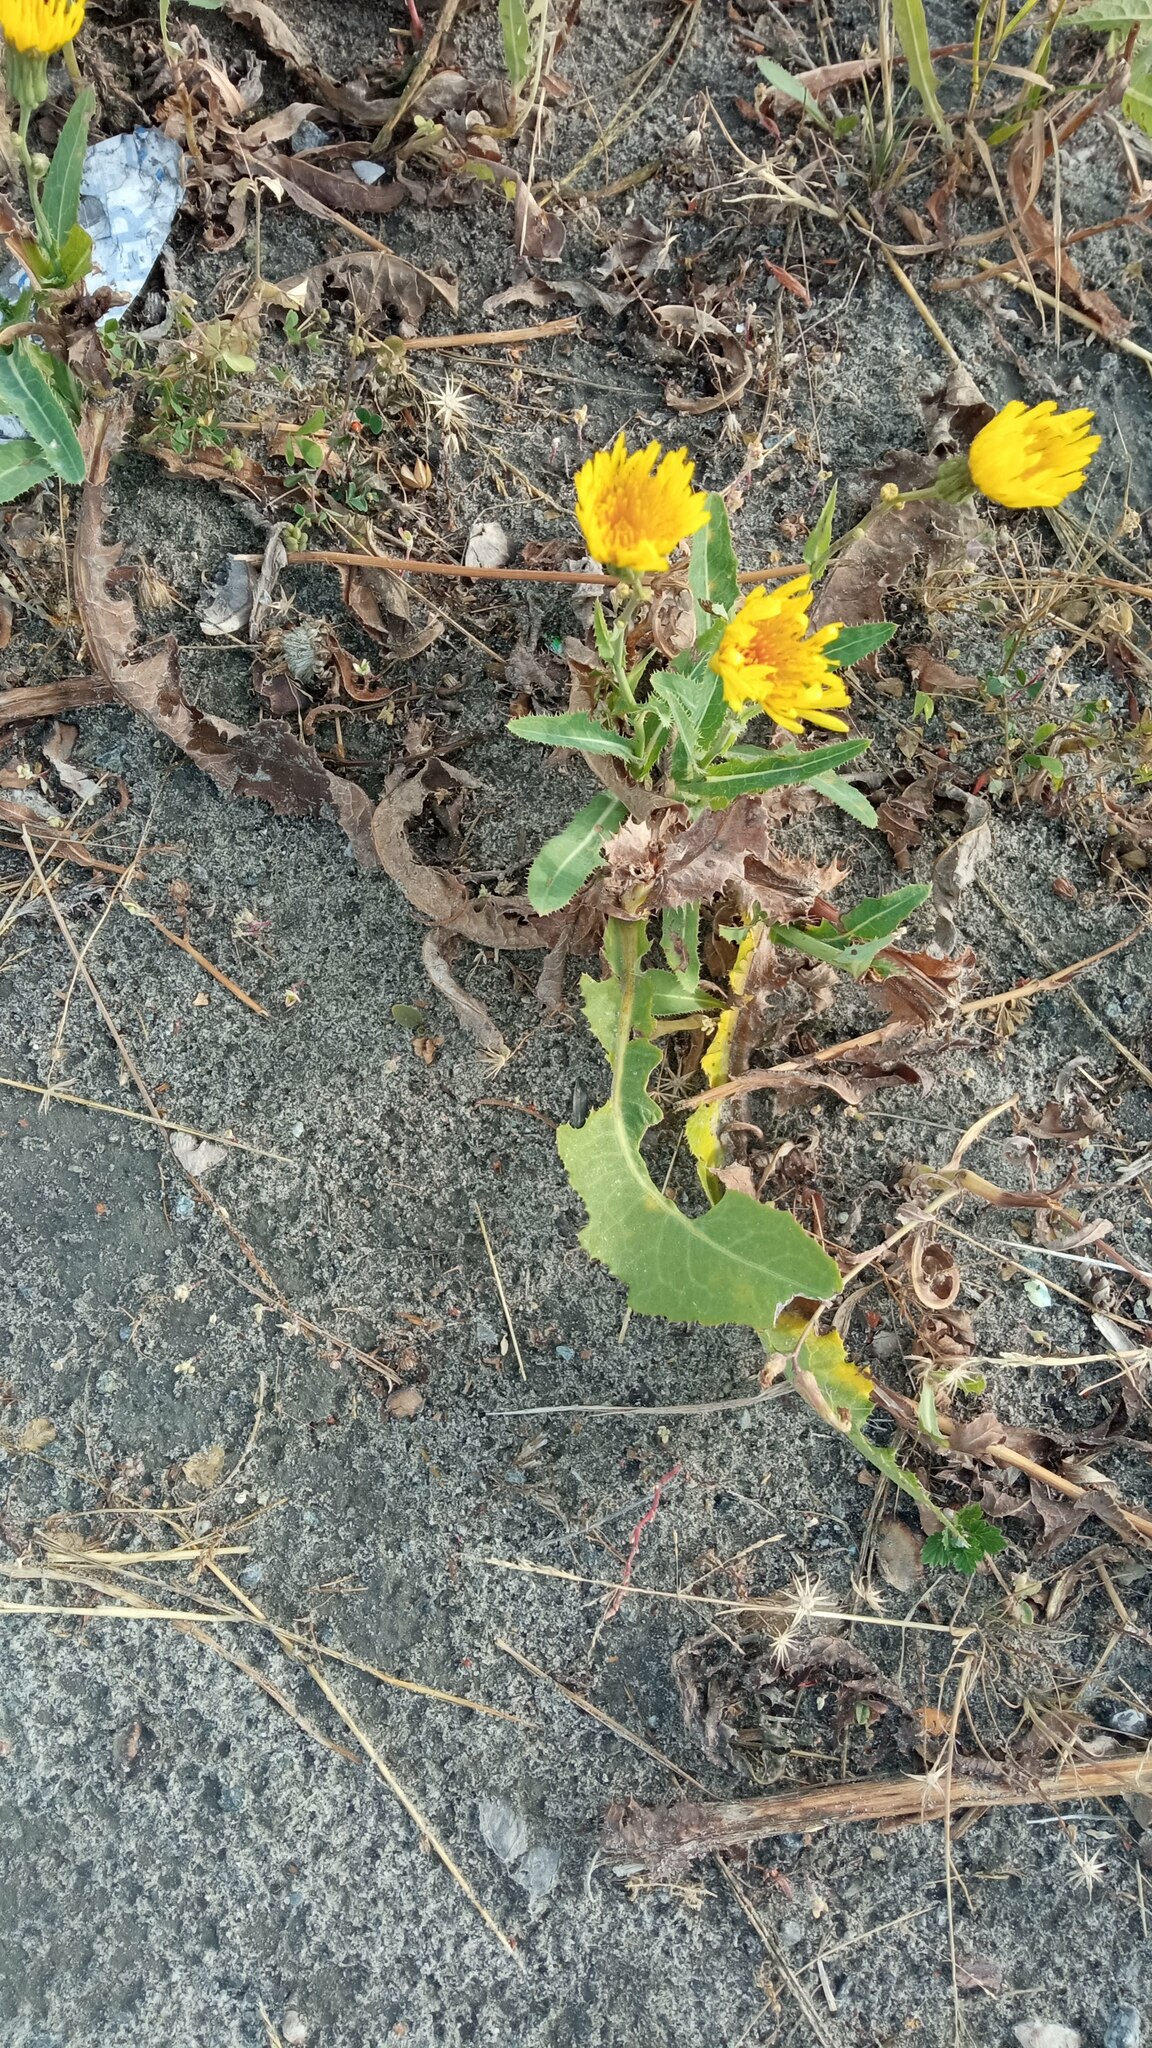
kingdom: Plantae
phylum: Tracheophyta
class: Magnoliopsida
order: Asterales
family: Asteraceae
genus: Sonchus
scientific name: Sonchus arvensis
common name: Perennial sow-thistle
